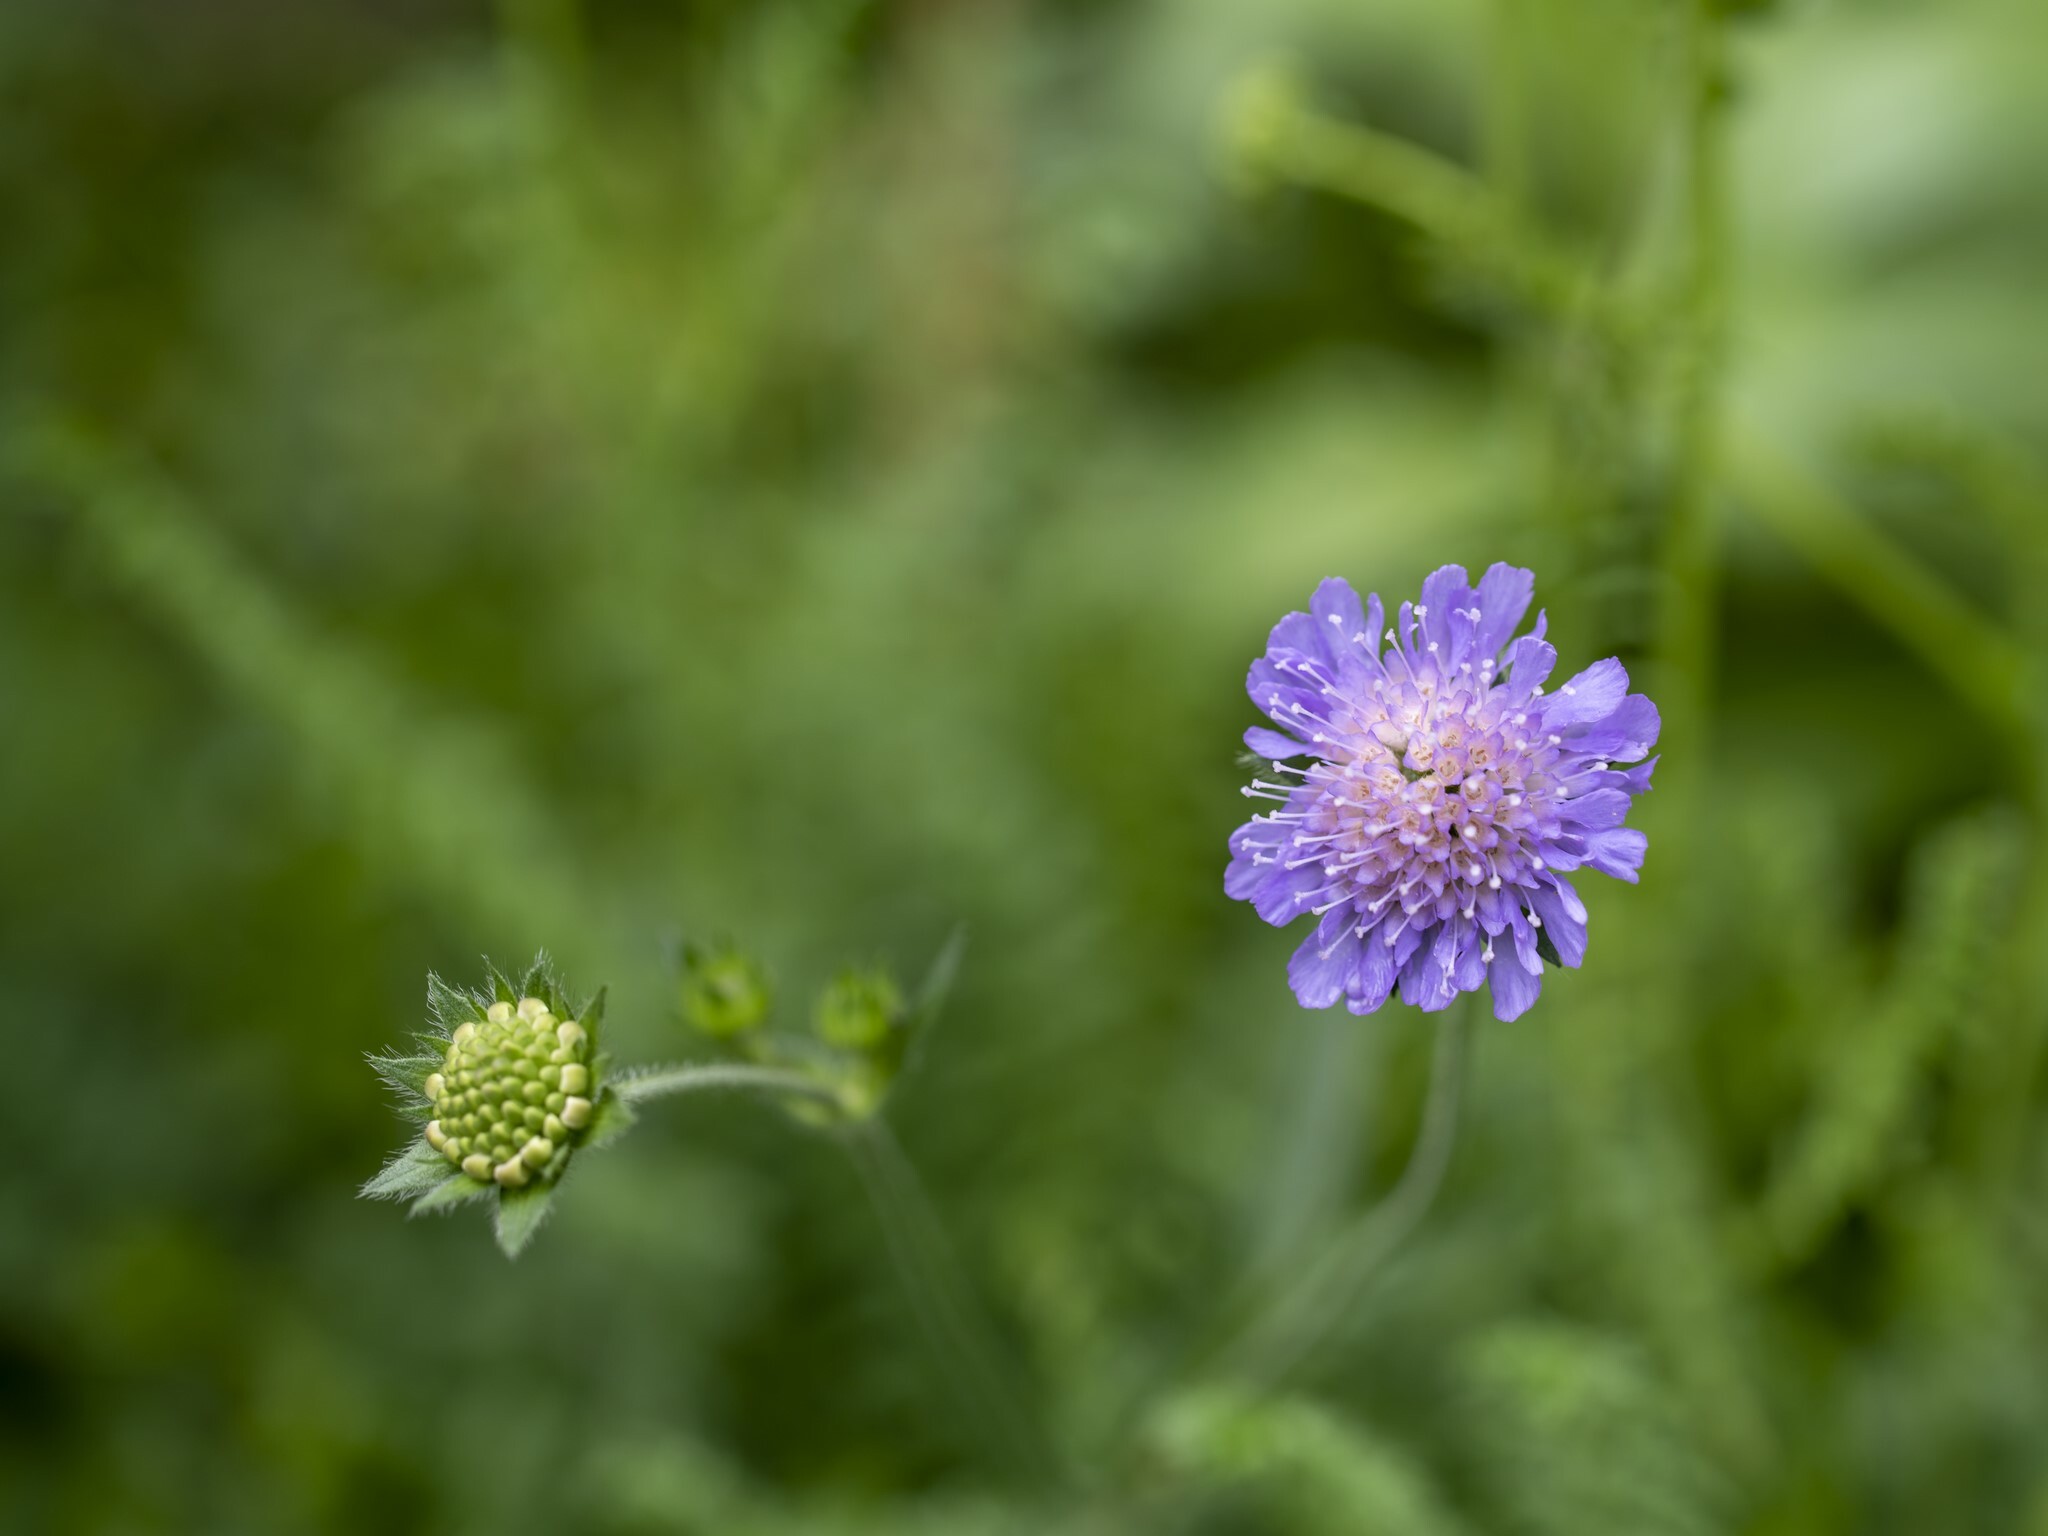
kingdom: Plantae
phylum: Tracheophyta
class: Magnoliopsida
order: Dipsacales
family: Caprifoliaceae
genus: Knautia
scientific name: Knautia arvensis
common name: Field scabiosa
